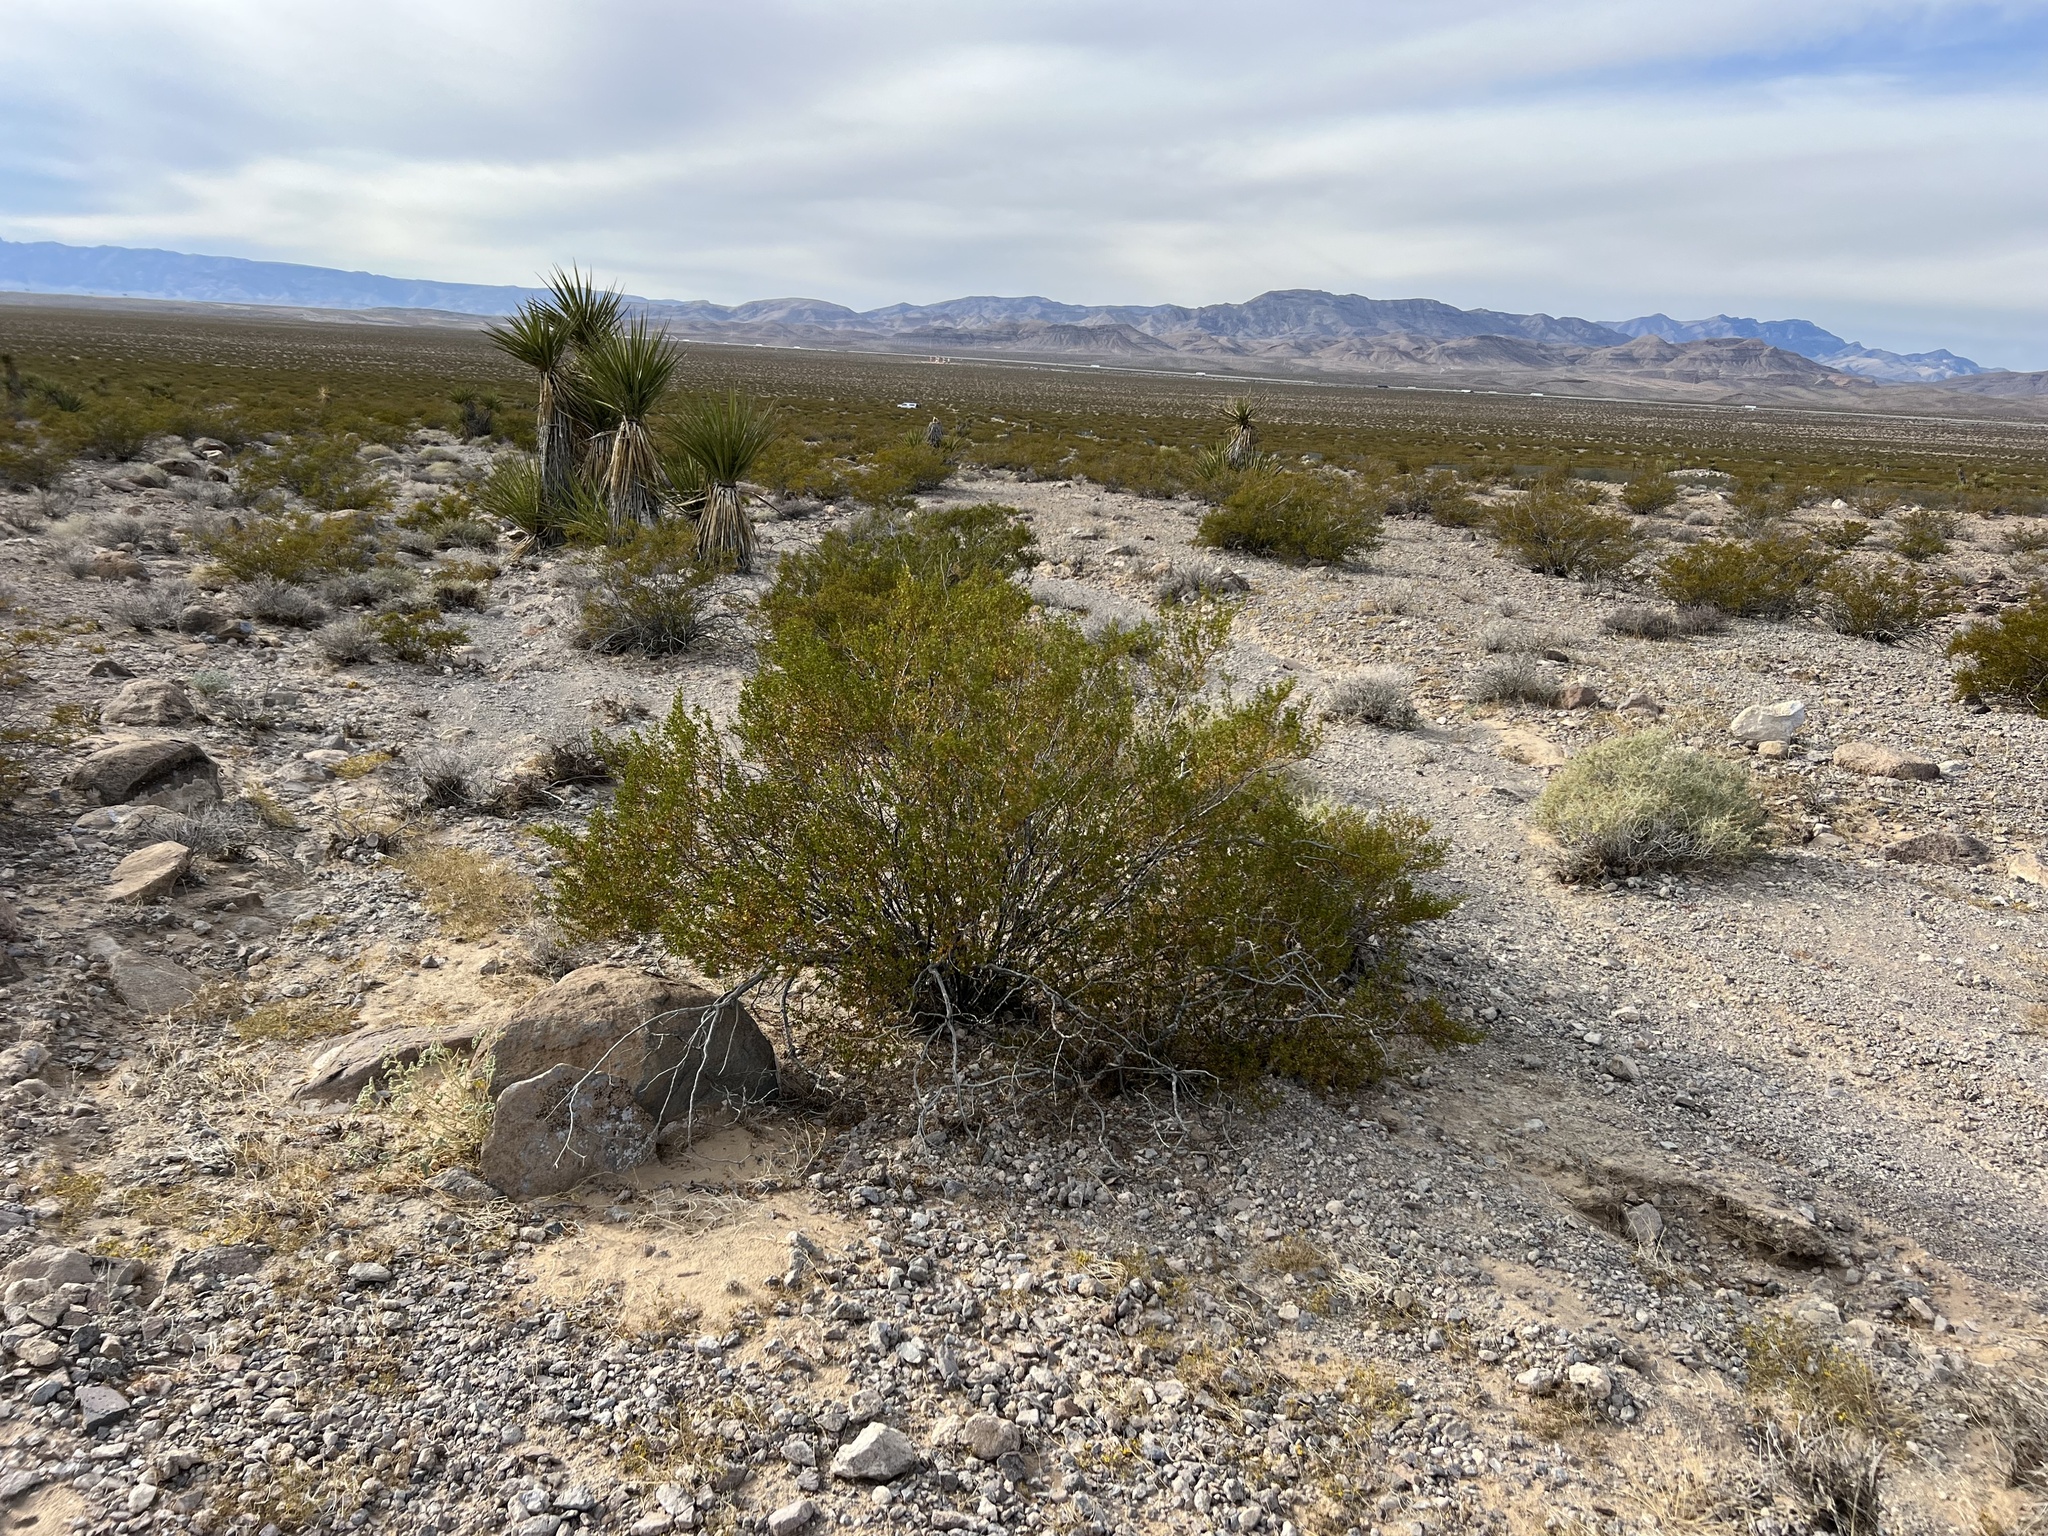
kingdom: Plantae
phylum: Tracheophyta
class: Magnoliopsida
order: Zygophyllales
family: Zygophyllaceae
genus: Larrea
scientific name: Larrea tridentata
